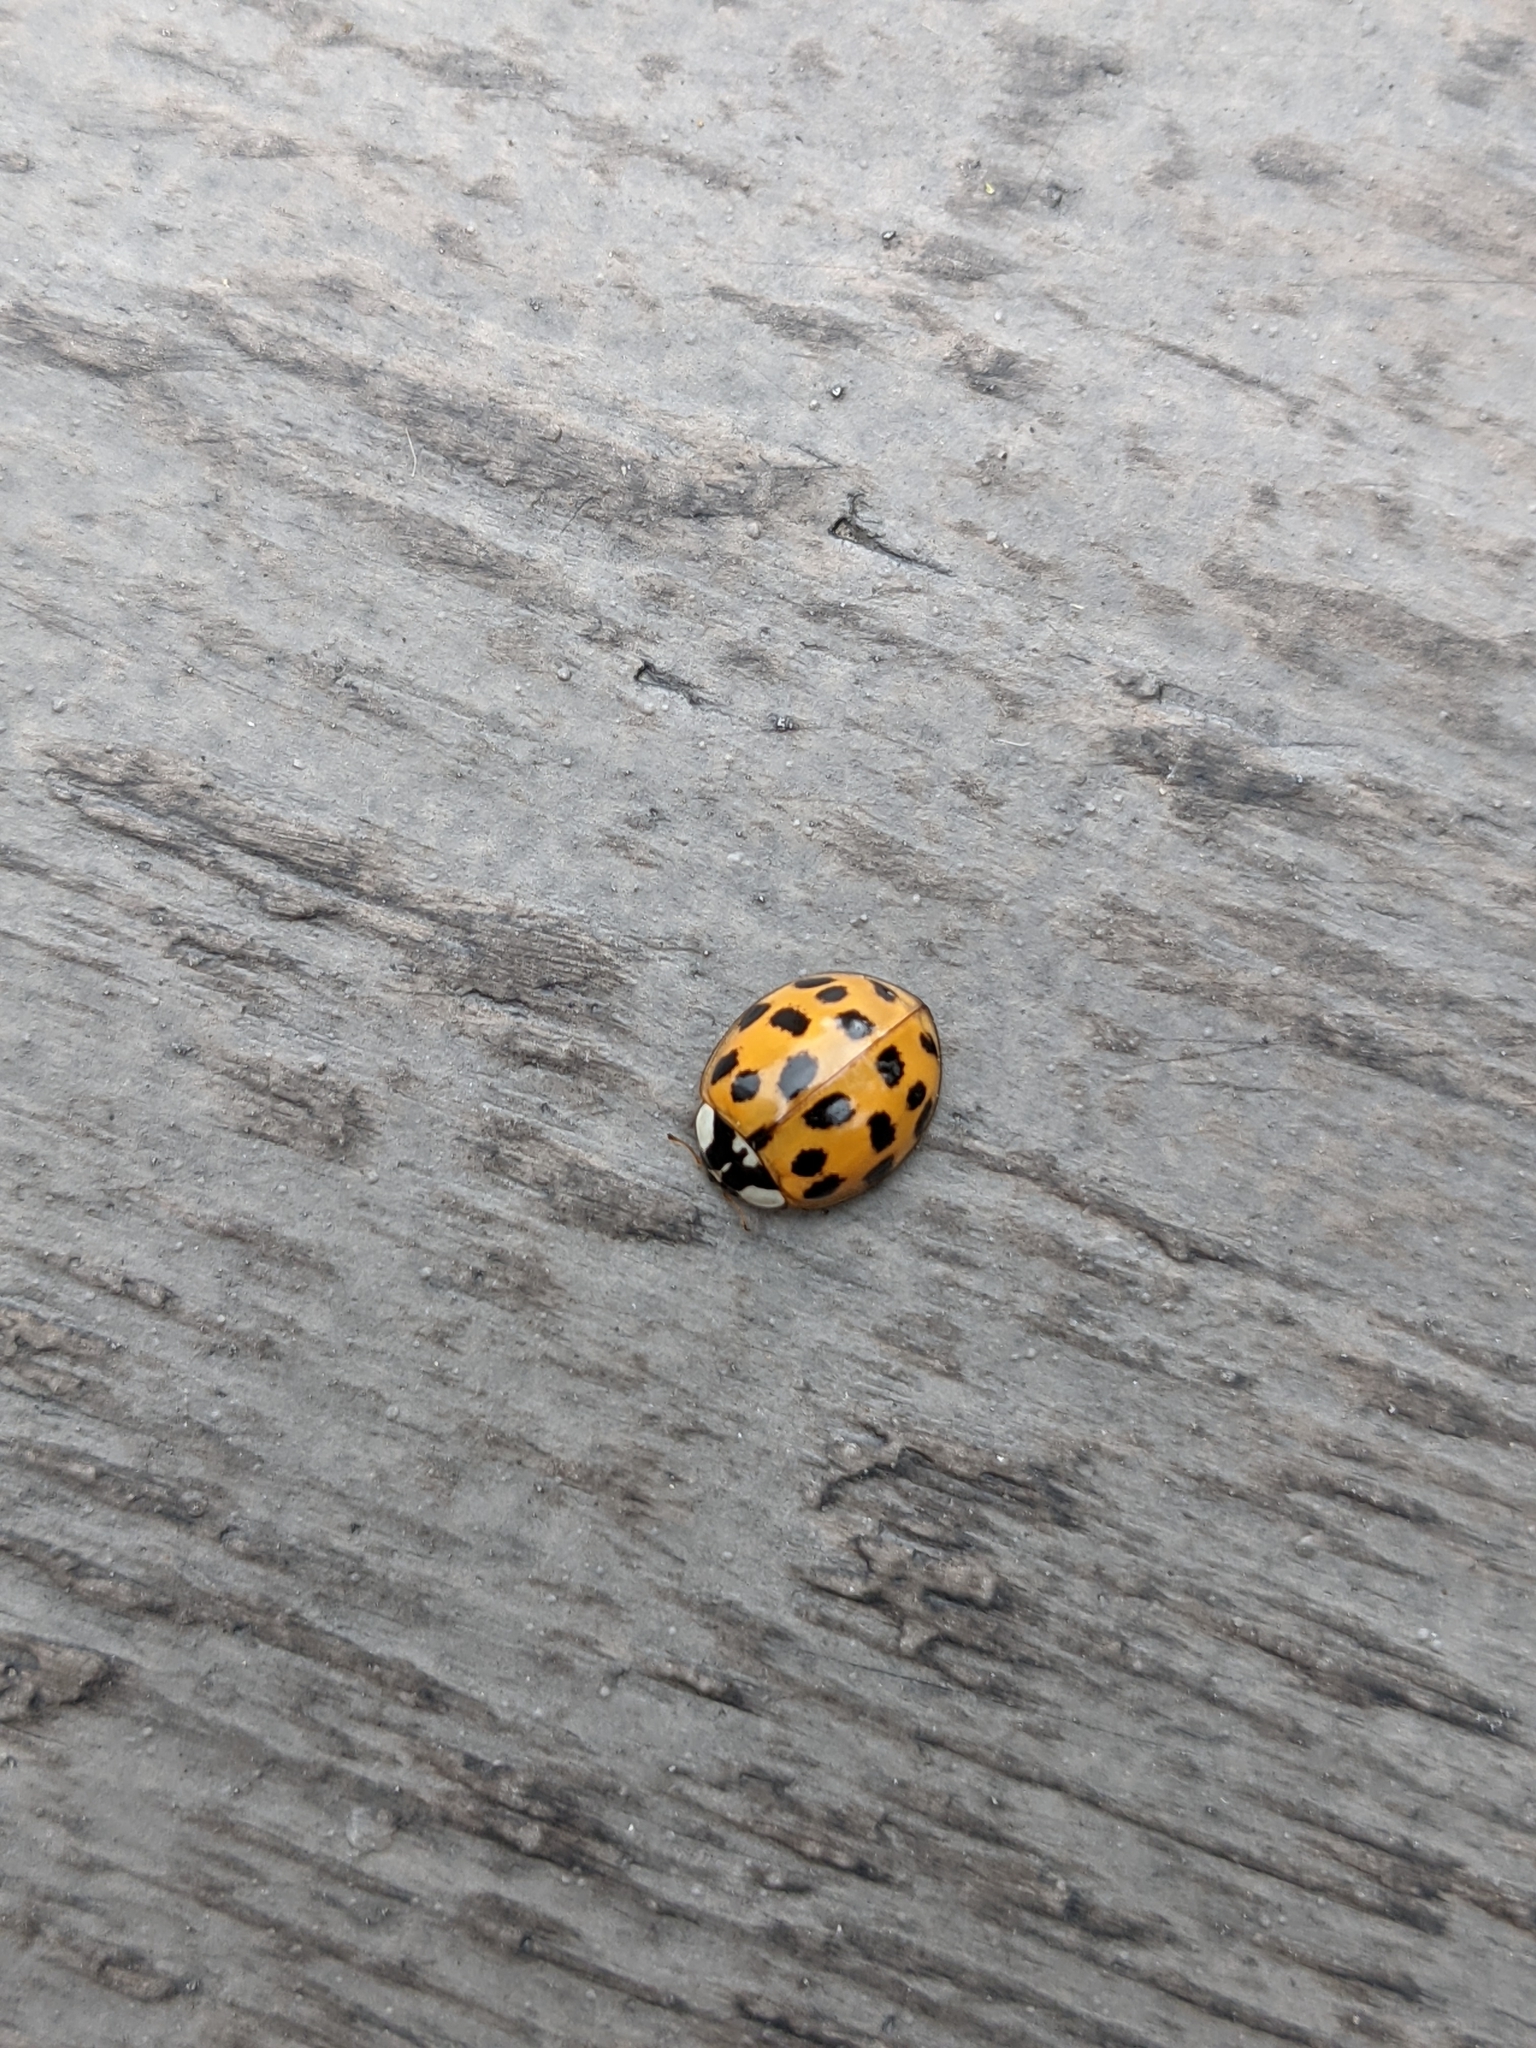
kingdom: Animalia
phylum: Arthropoda
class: Insecta
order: Coleoptera
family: Coccinellidae
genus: Harmonia
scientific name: Harmonia axyridis
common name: Harlequin ladybird
